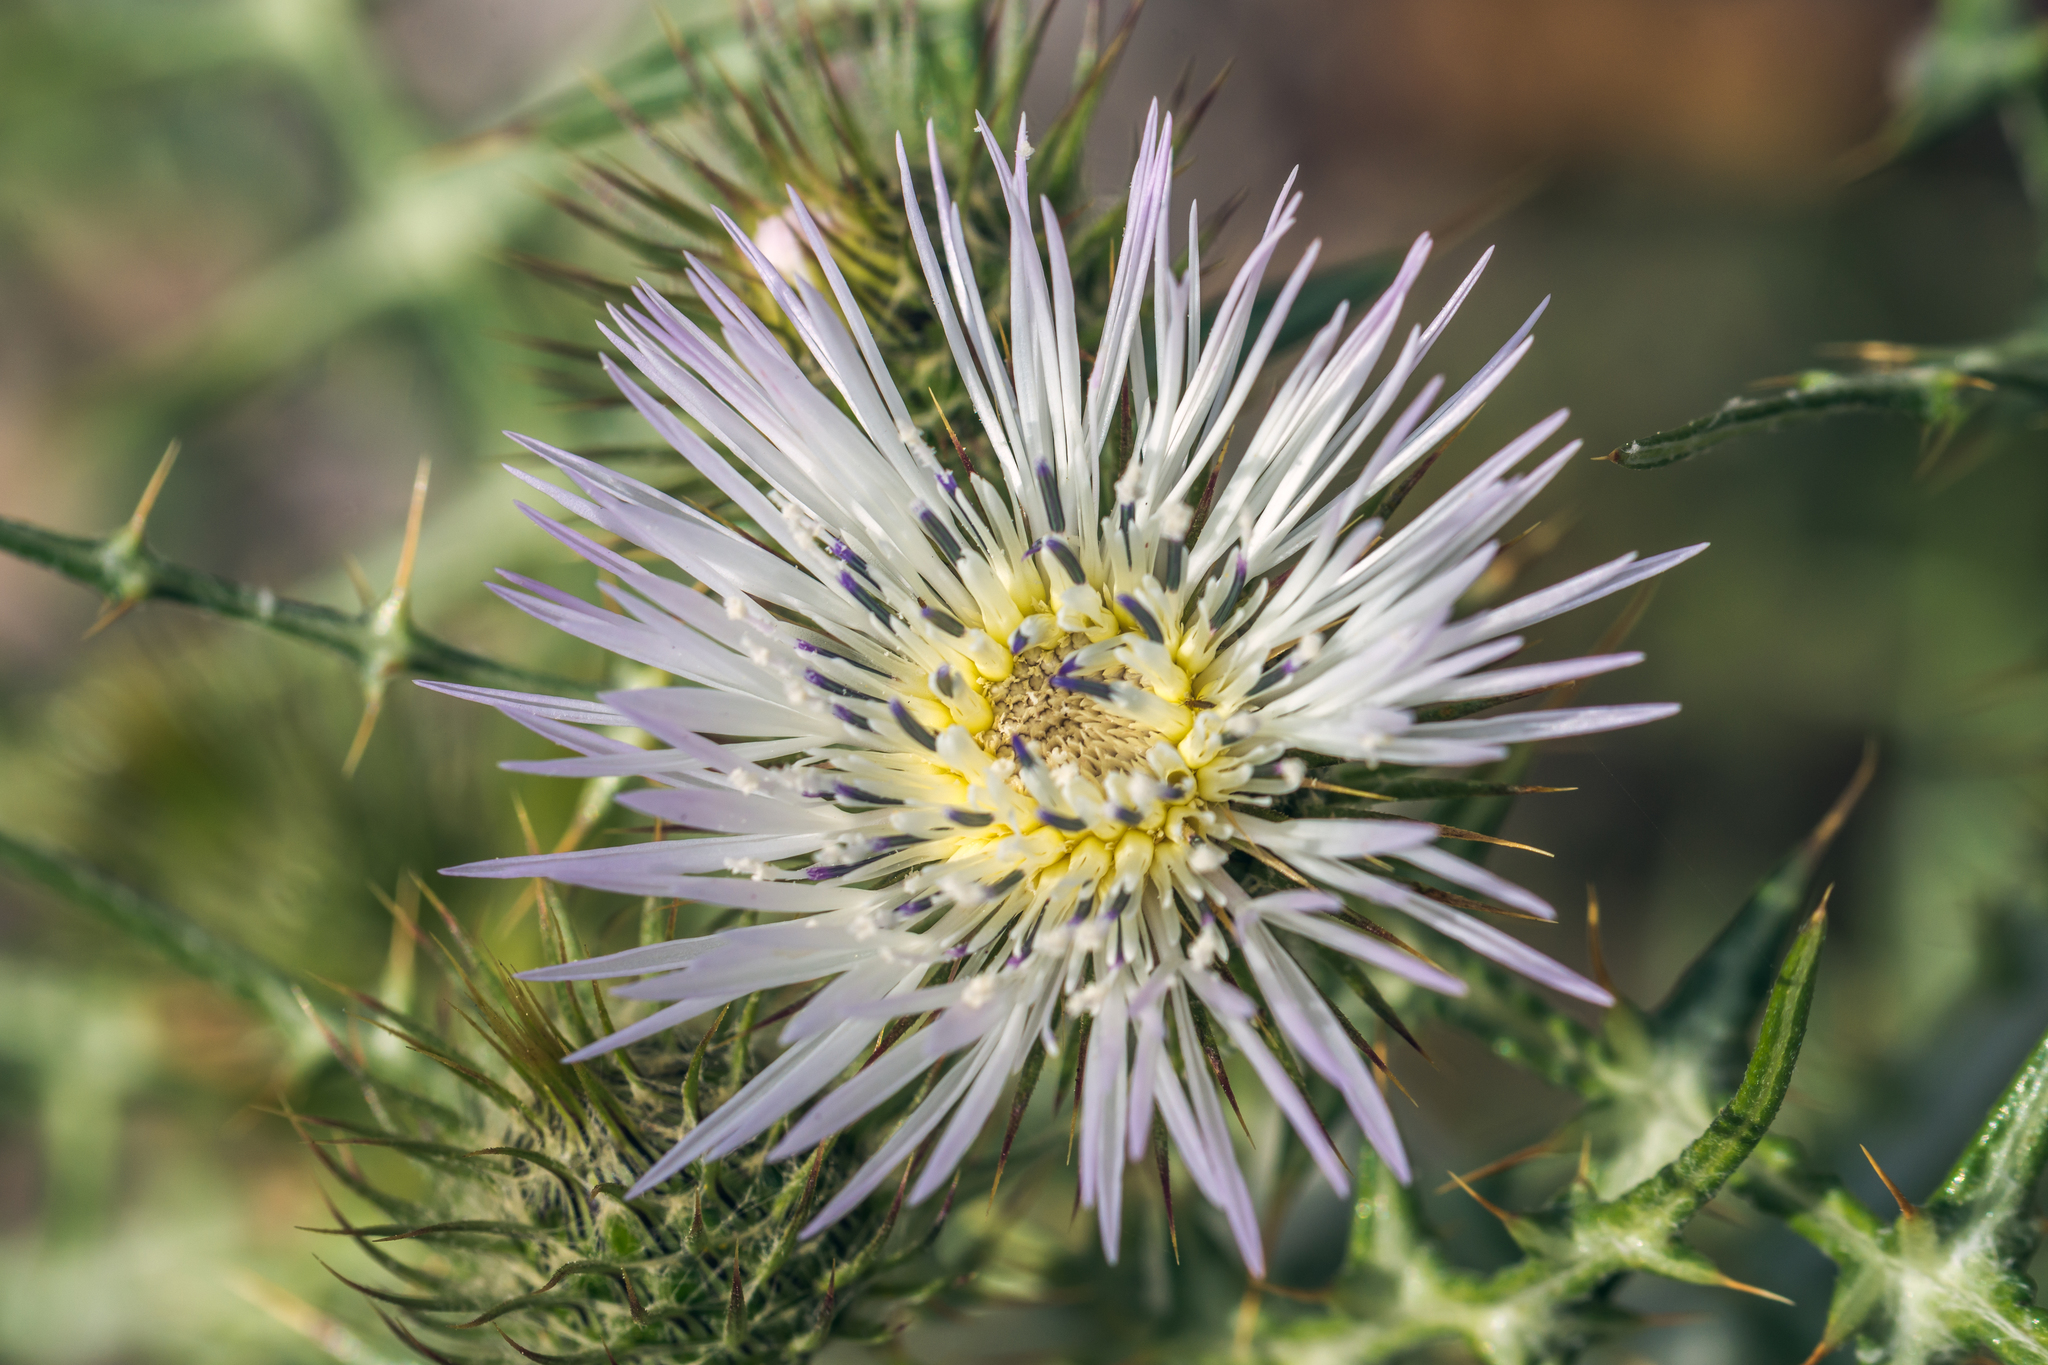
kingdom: Plantae
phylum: Tracheophyta
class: Magnoliopsida
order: Asterales
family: Asteraceae
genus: Galactites
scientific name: Galactites tomentosa
